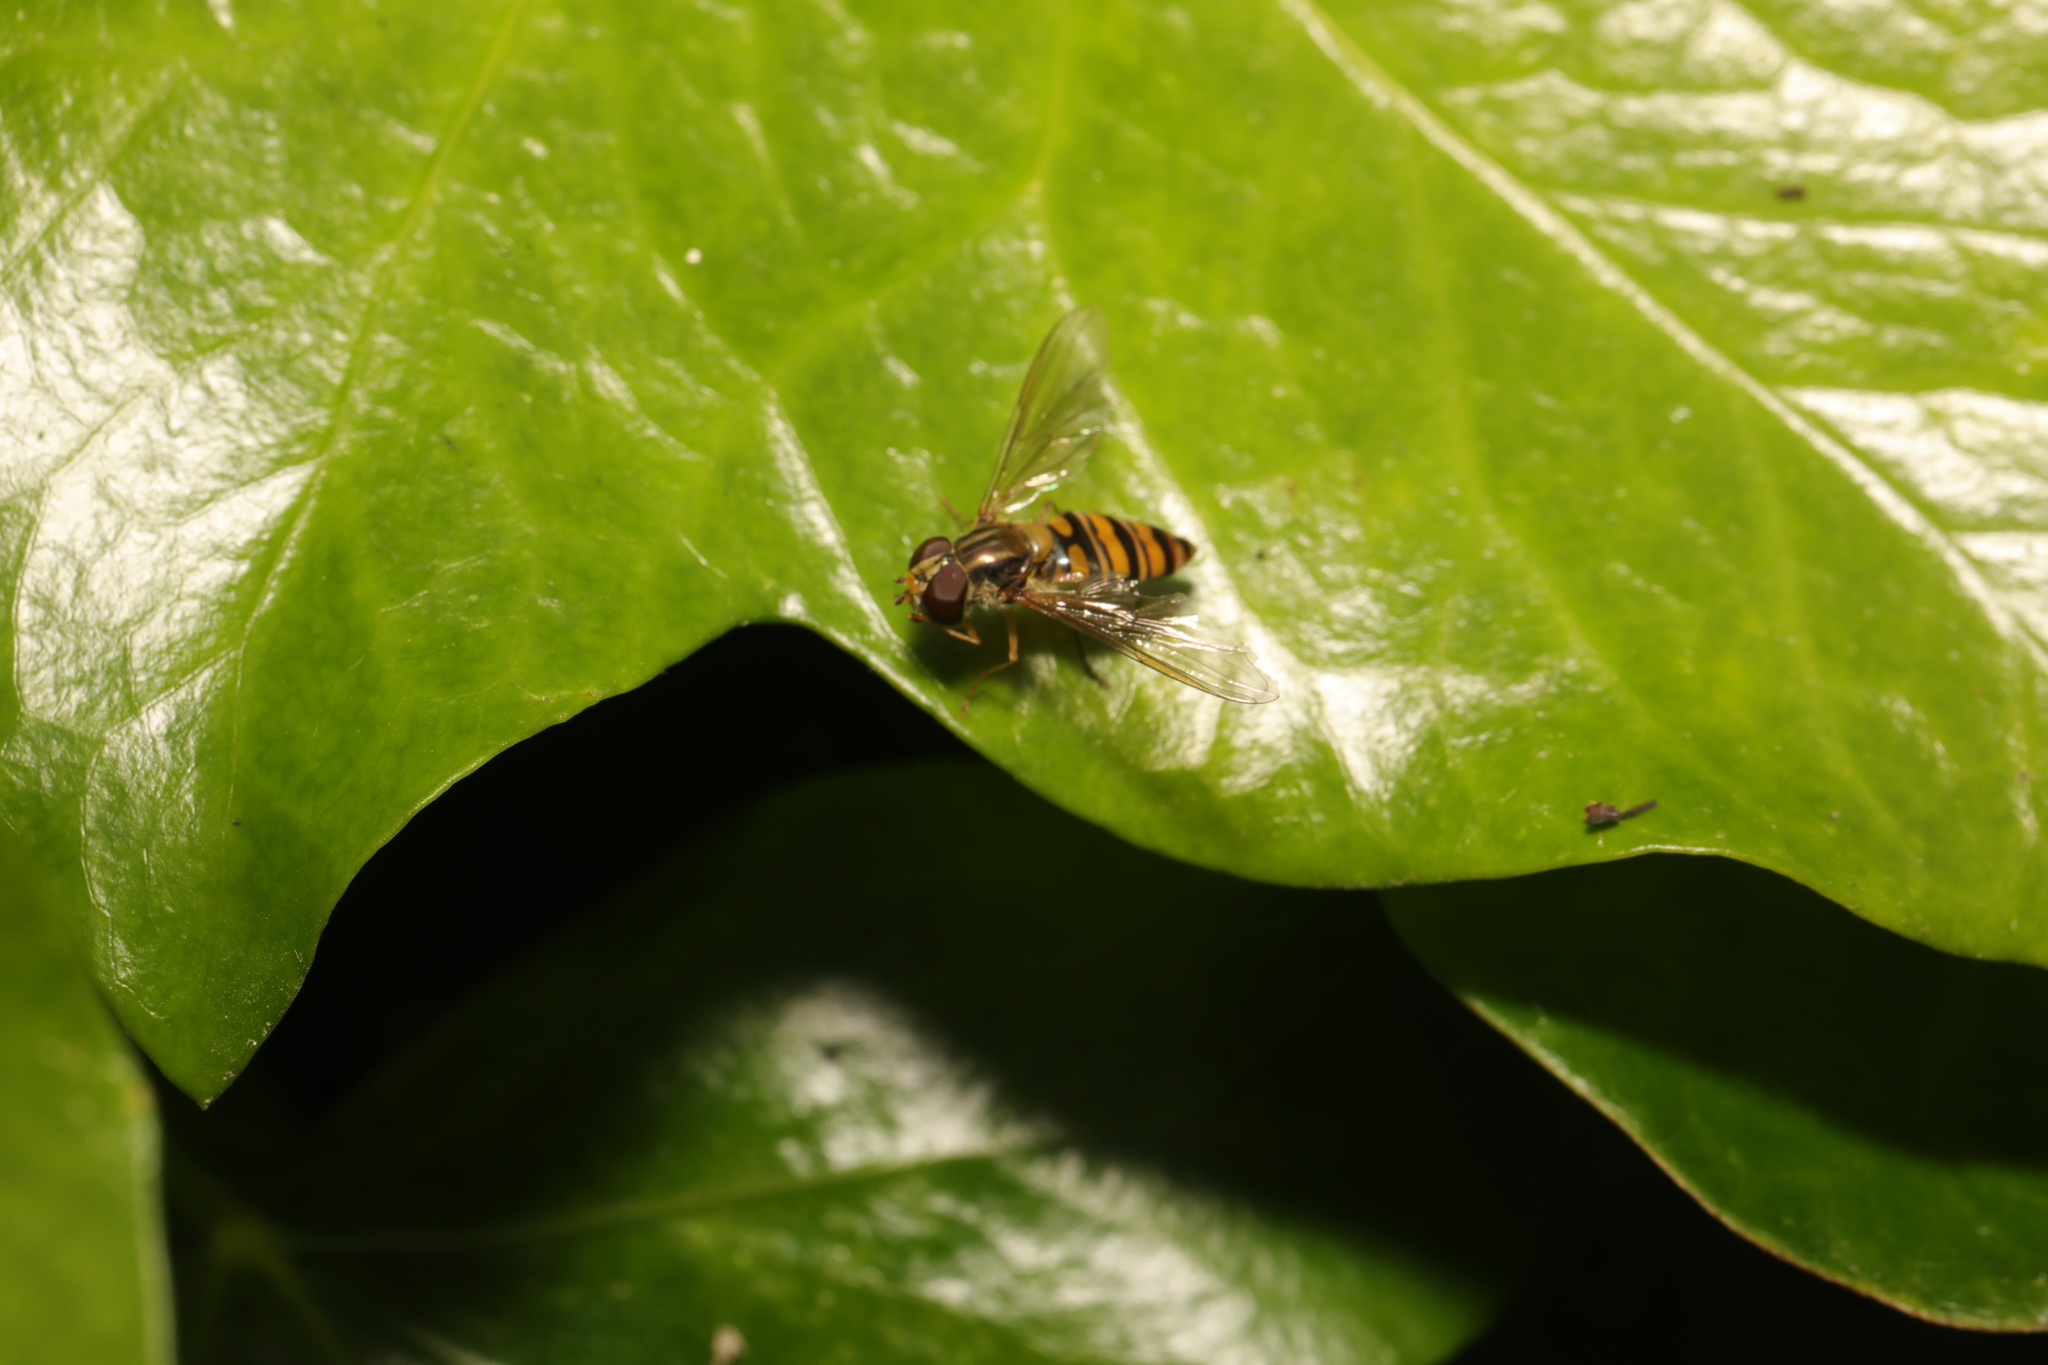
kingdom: Animalia
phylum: Arthropoda
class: Insecta
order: Diptera
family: Syrphidae
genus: Episyrphus
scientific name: Episyrphus balteatus
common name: Marmalade hoverfly
